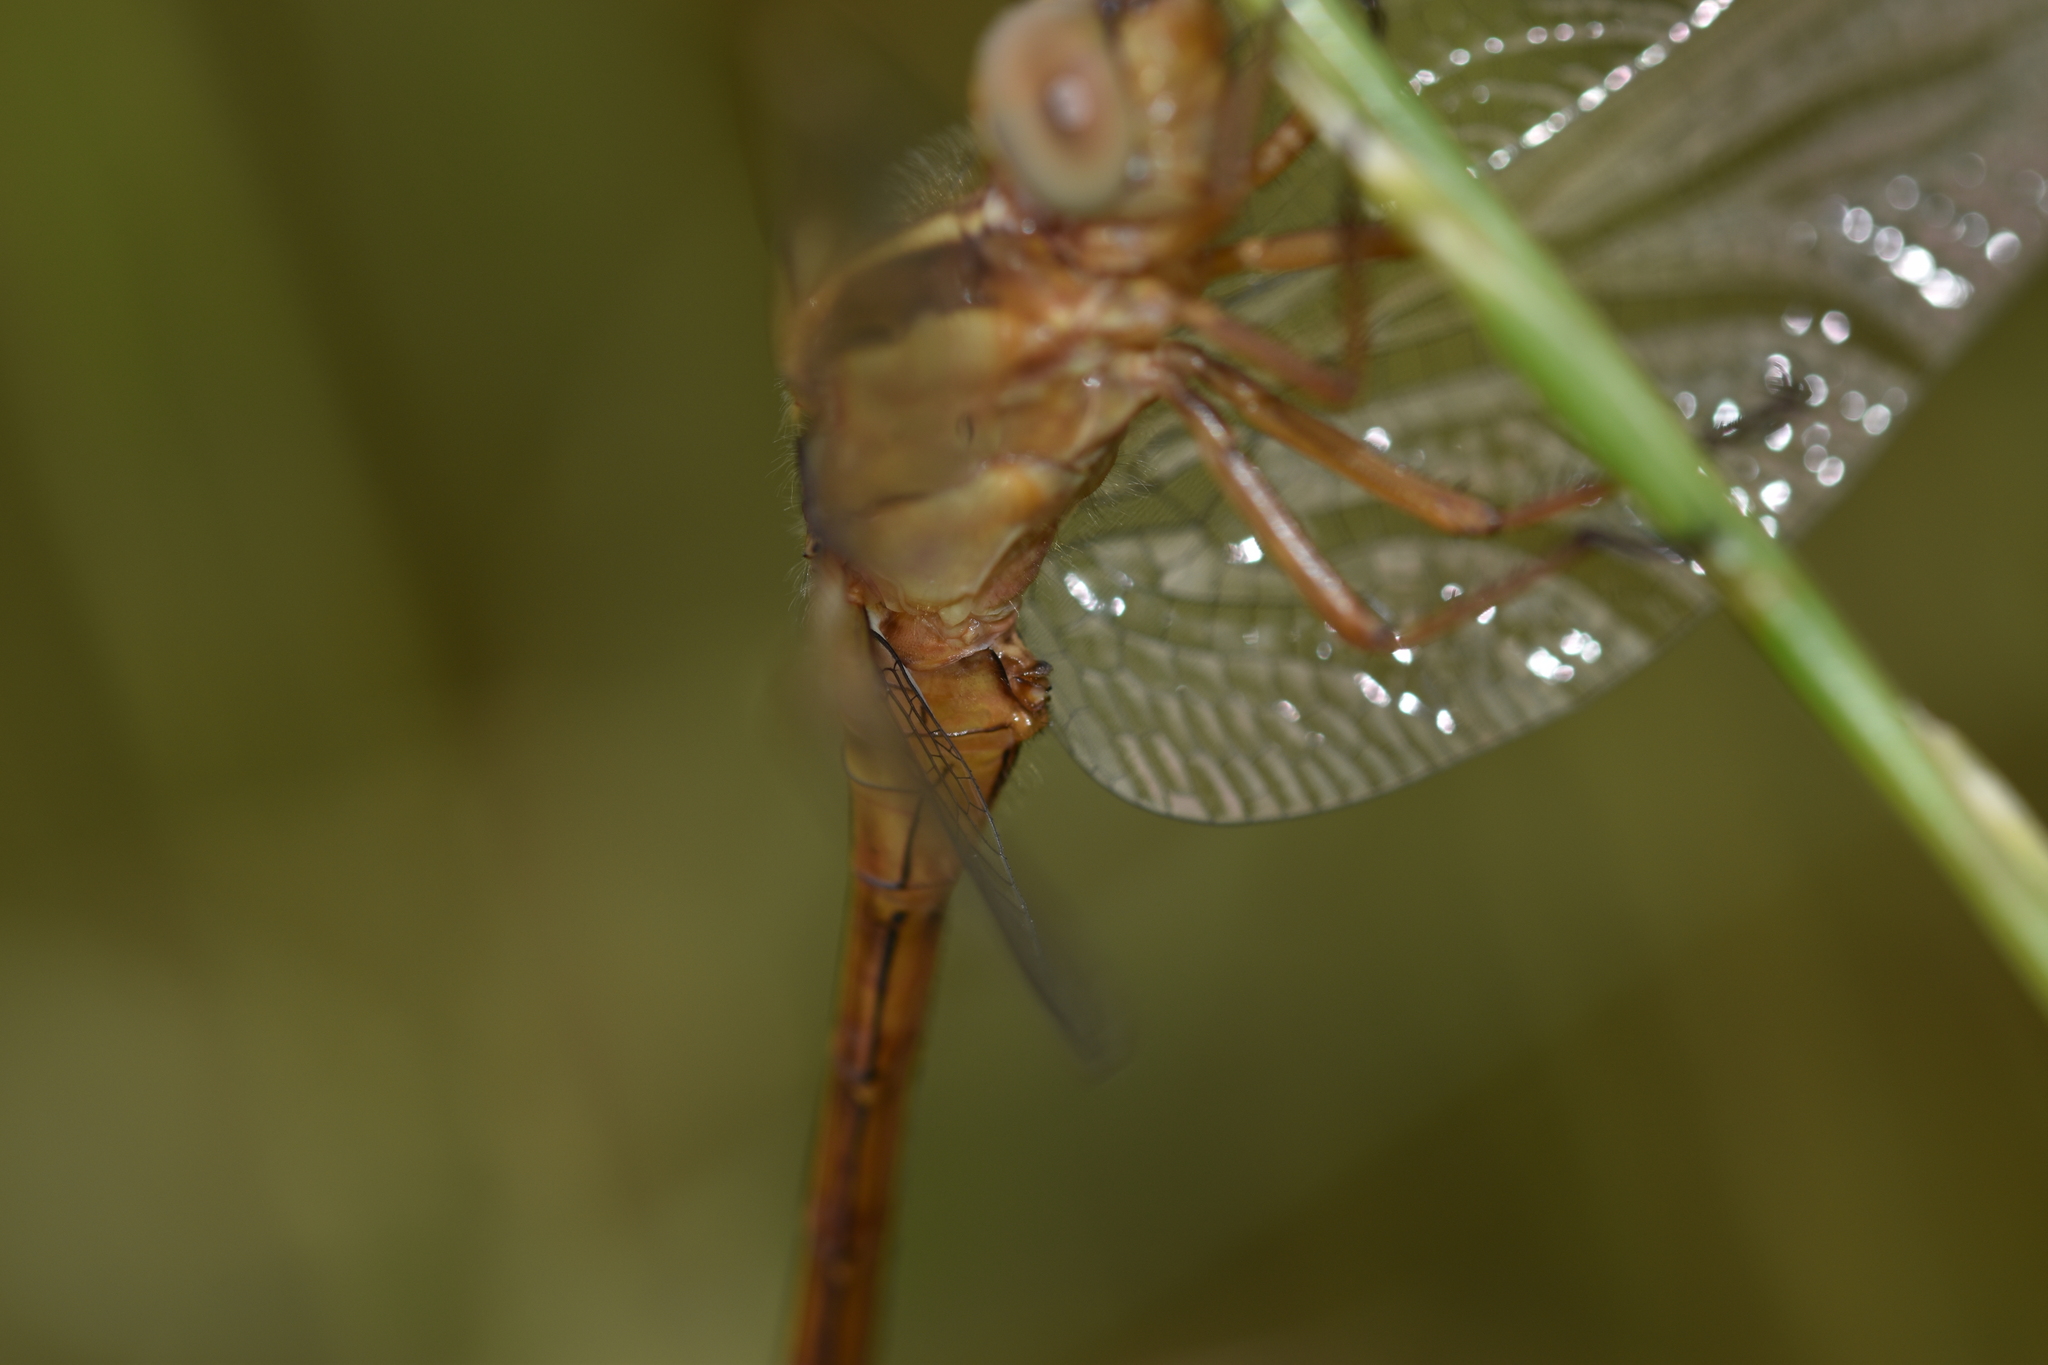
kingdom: Animalia
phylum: Arthropoda
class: Insecta
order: Odonata
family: Libellulidae
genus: Orthetrum
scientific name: Orthetrum coerulescens
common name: Keeled skimmer
